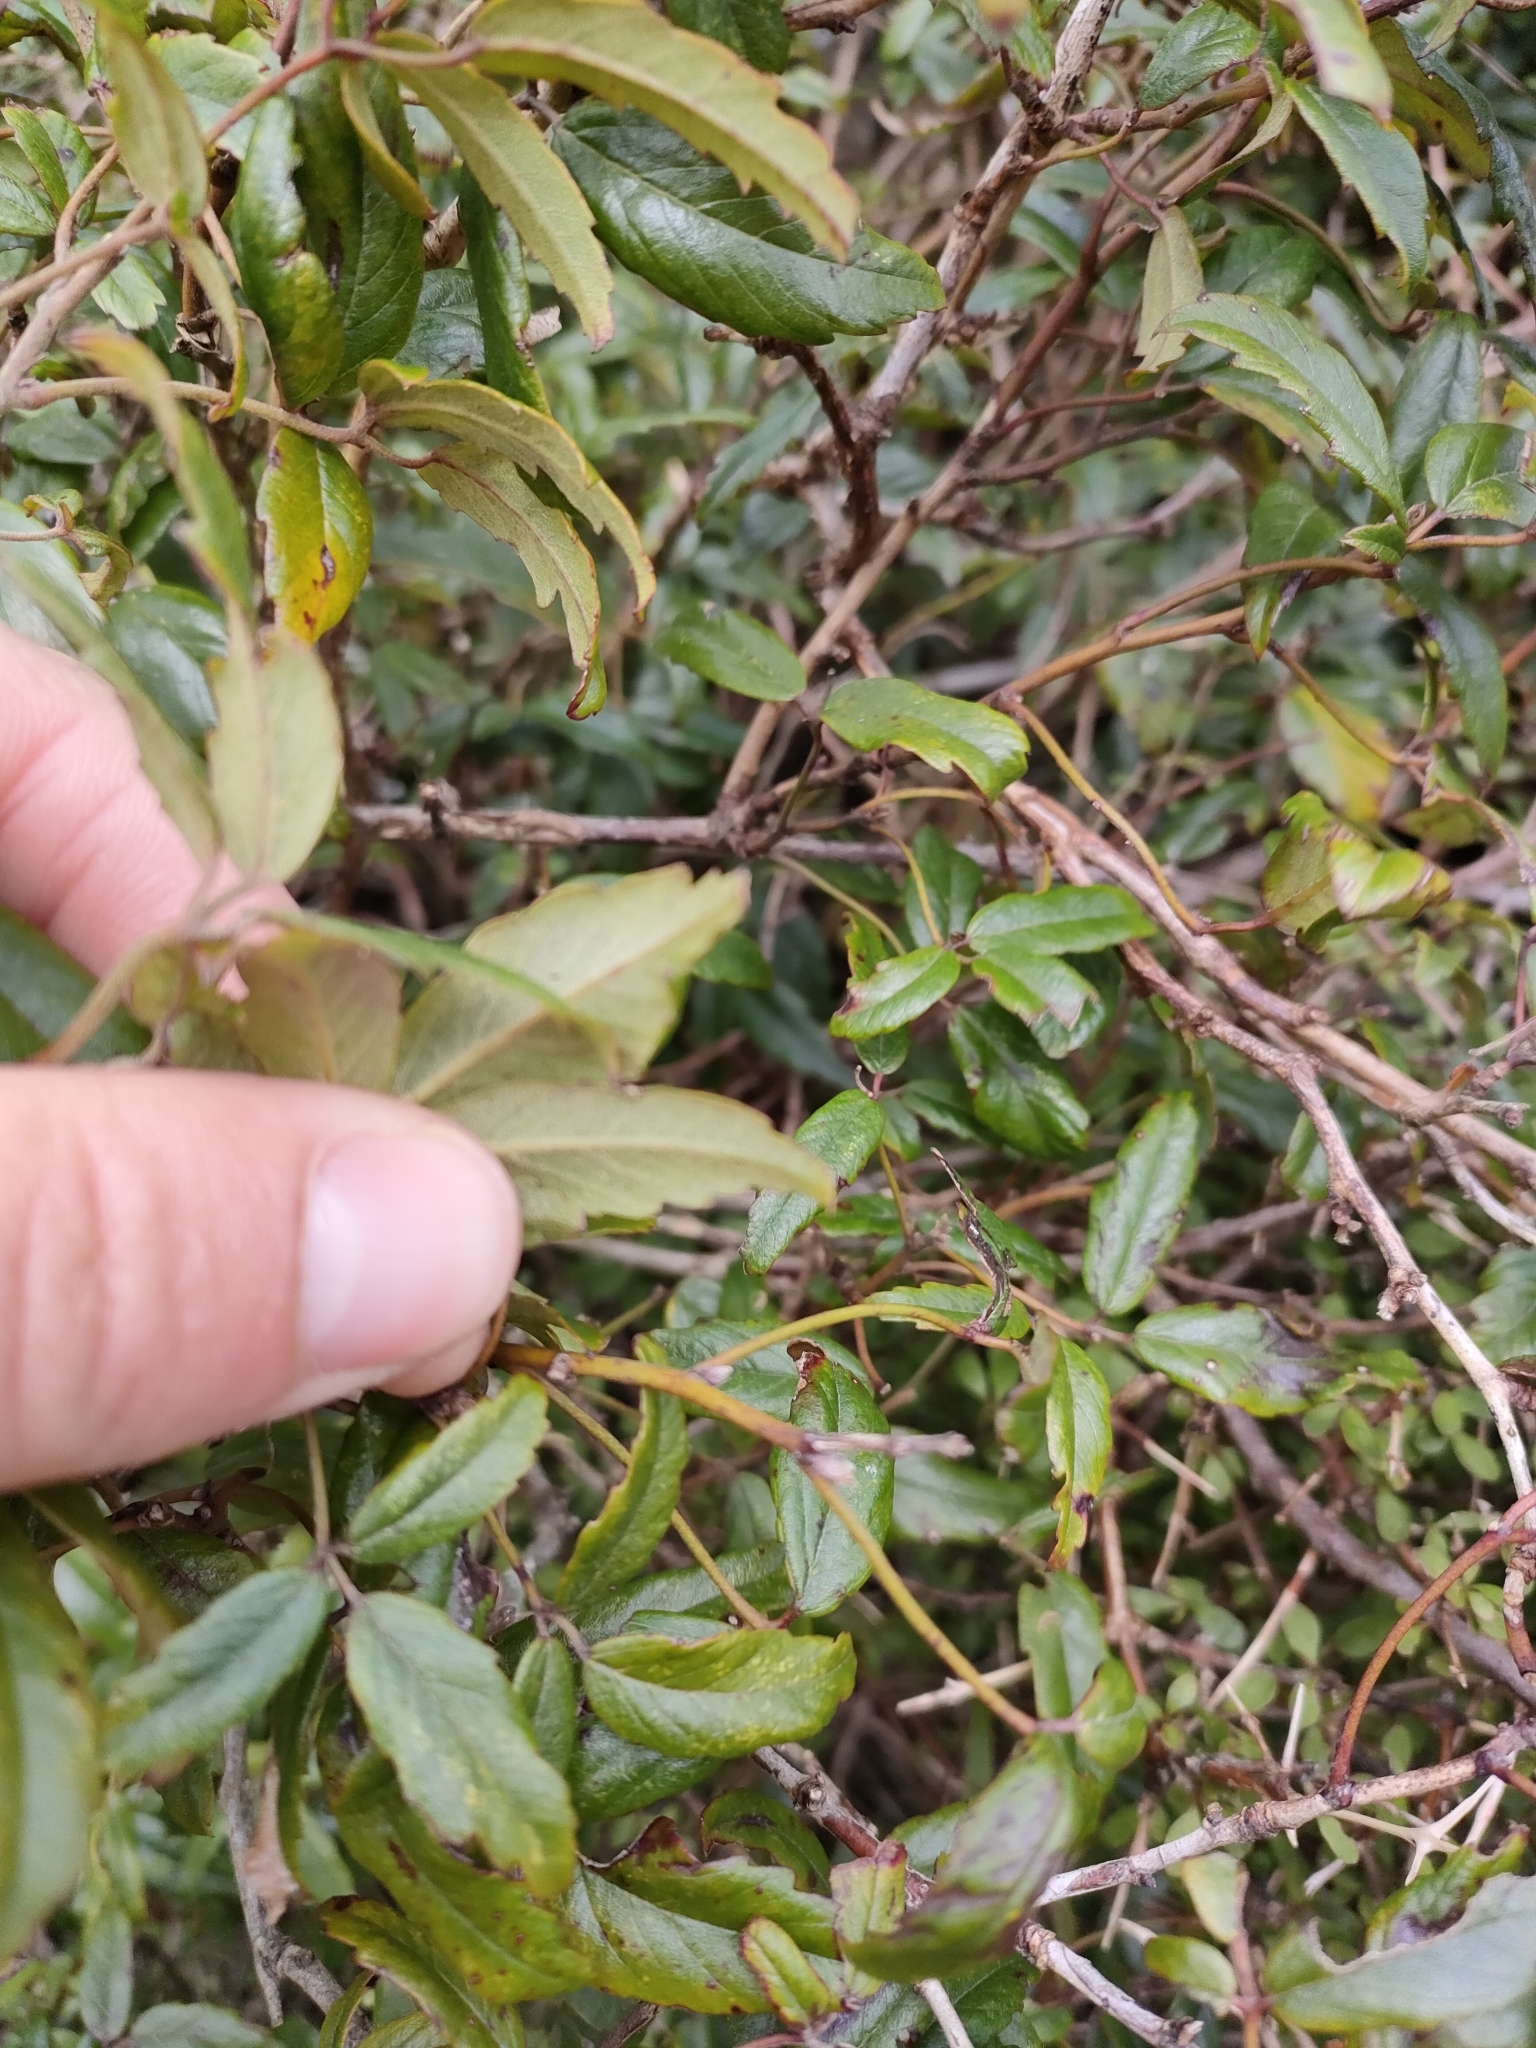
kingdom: Plantae
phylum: Tracheophyta
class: Magnoliopsida
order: Rosales
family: Rosaceae
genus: Rubus
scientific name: Rubus schmidelioides
